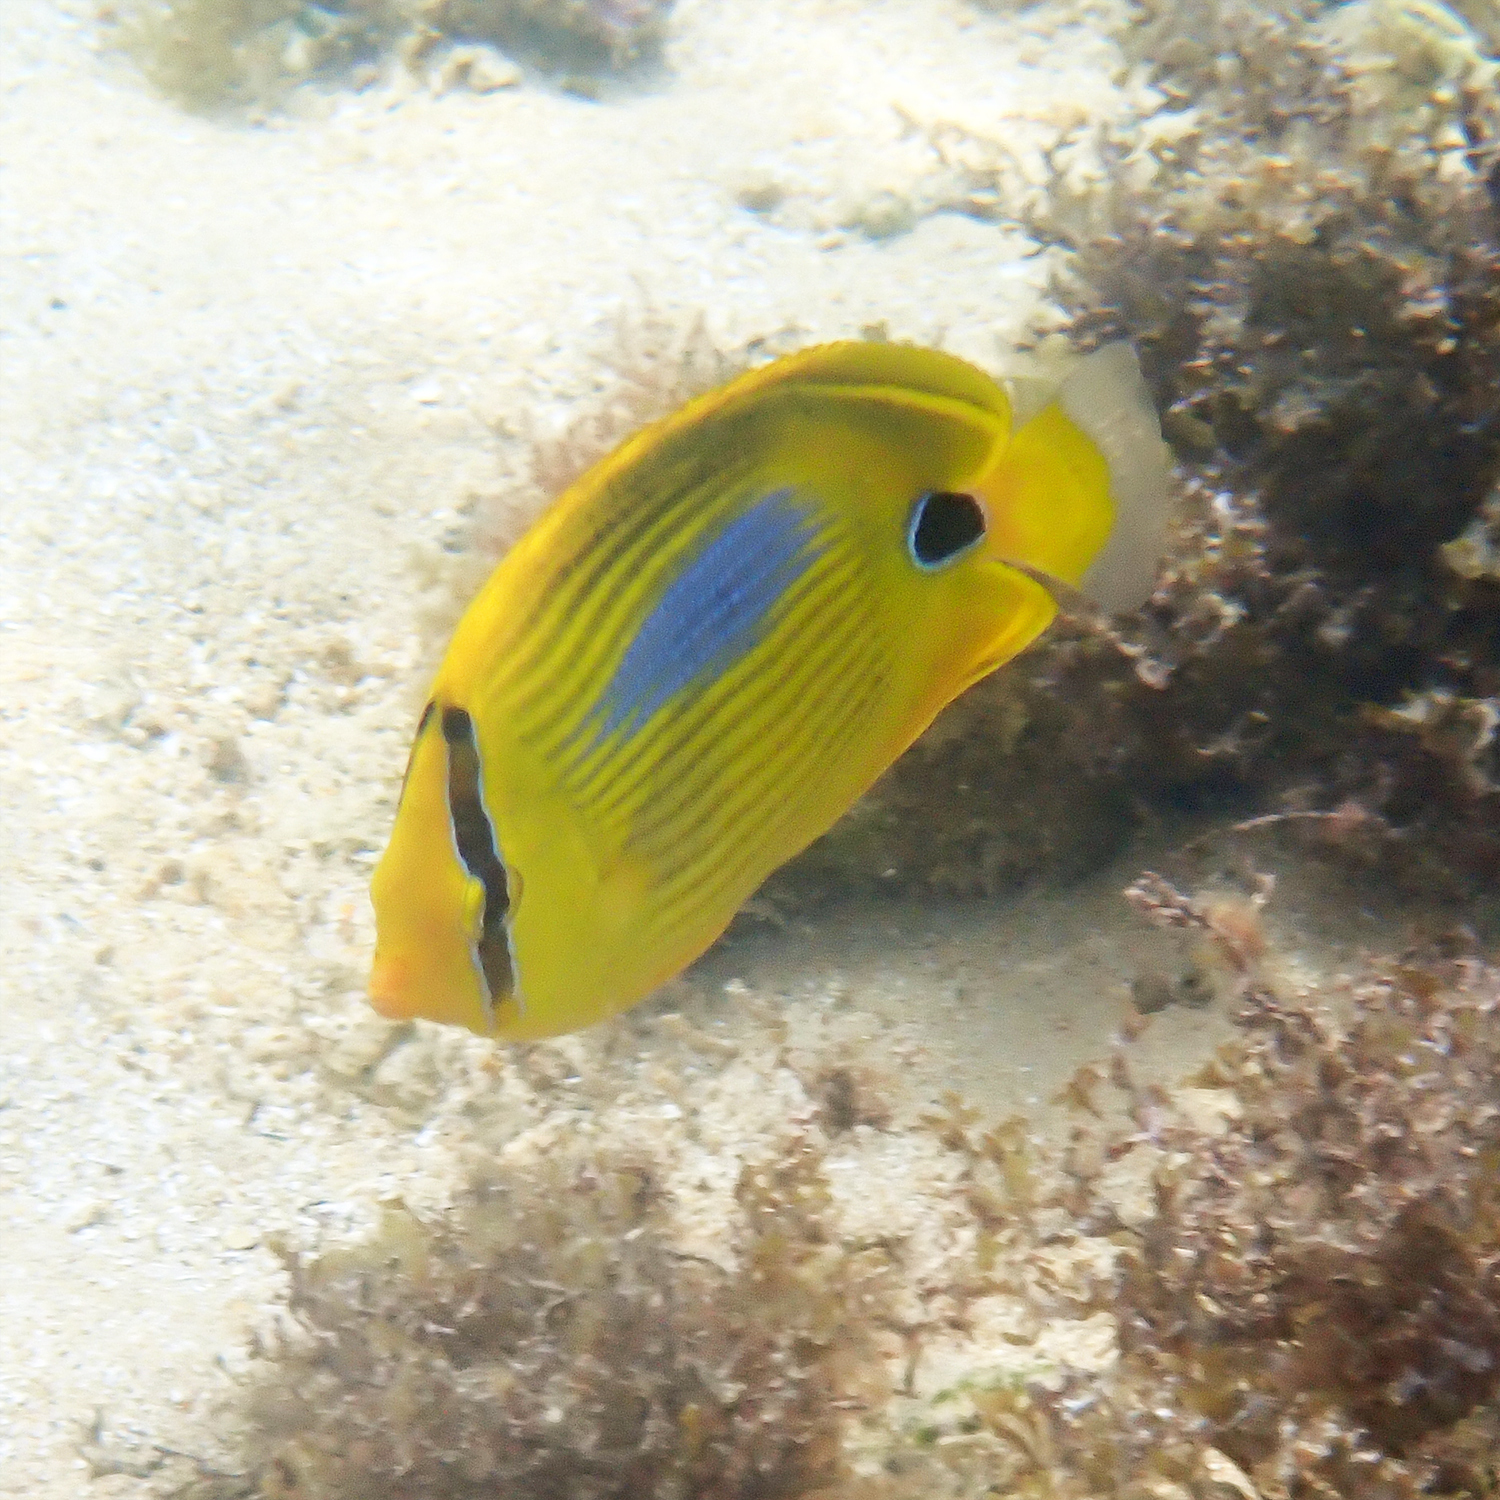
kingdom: Animalia
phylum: Chordata
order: Perciformes
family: Chaetodontidae
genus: Chaetodon
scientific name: Chaetodon plebeius
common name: Bluespot butterflyfish
